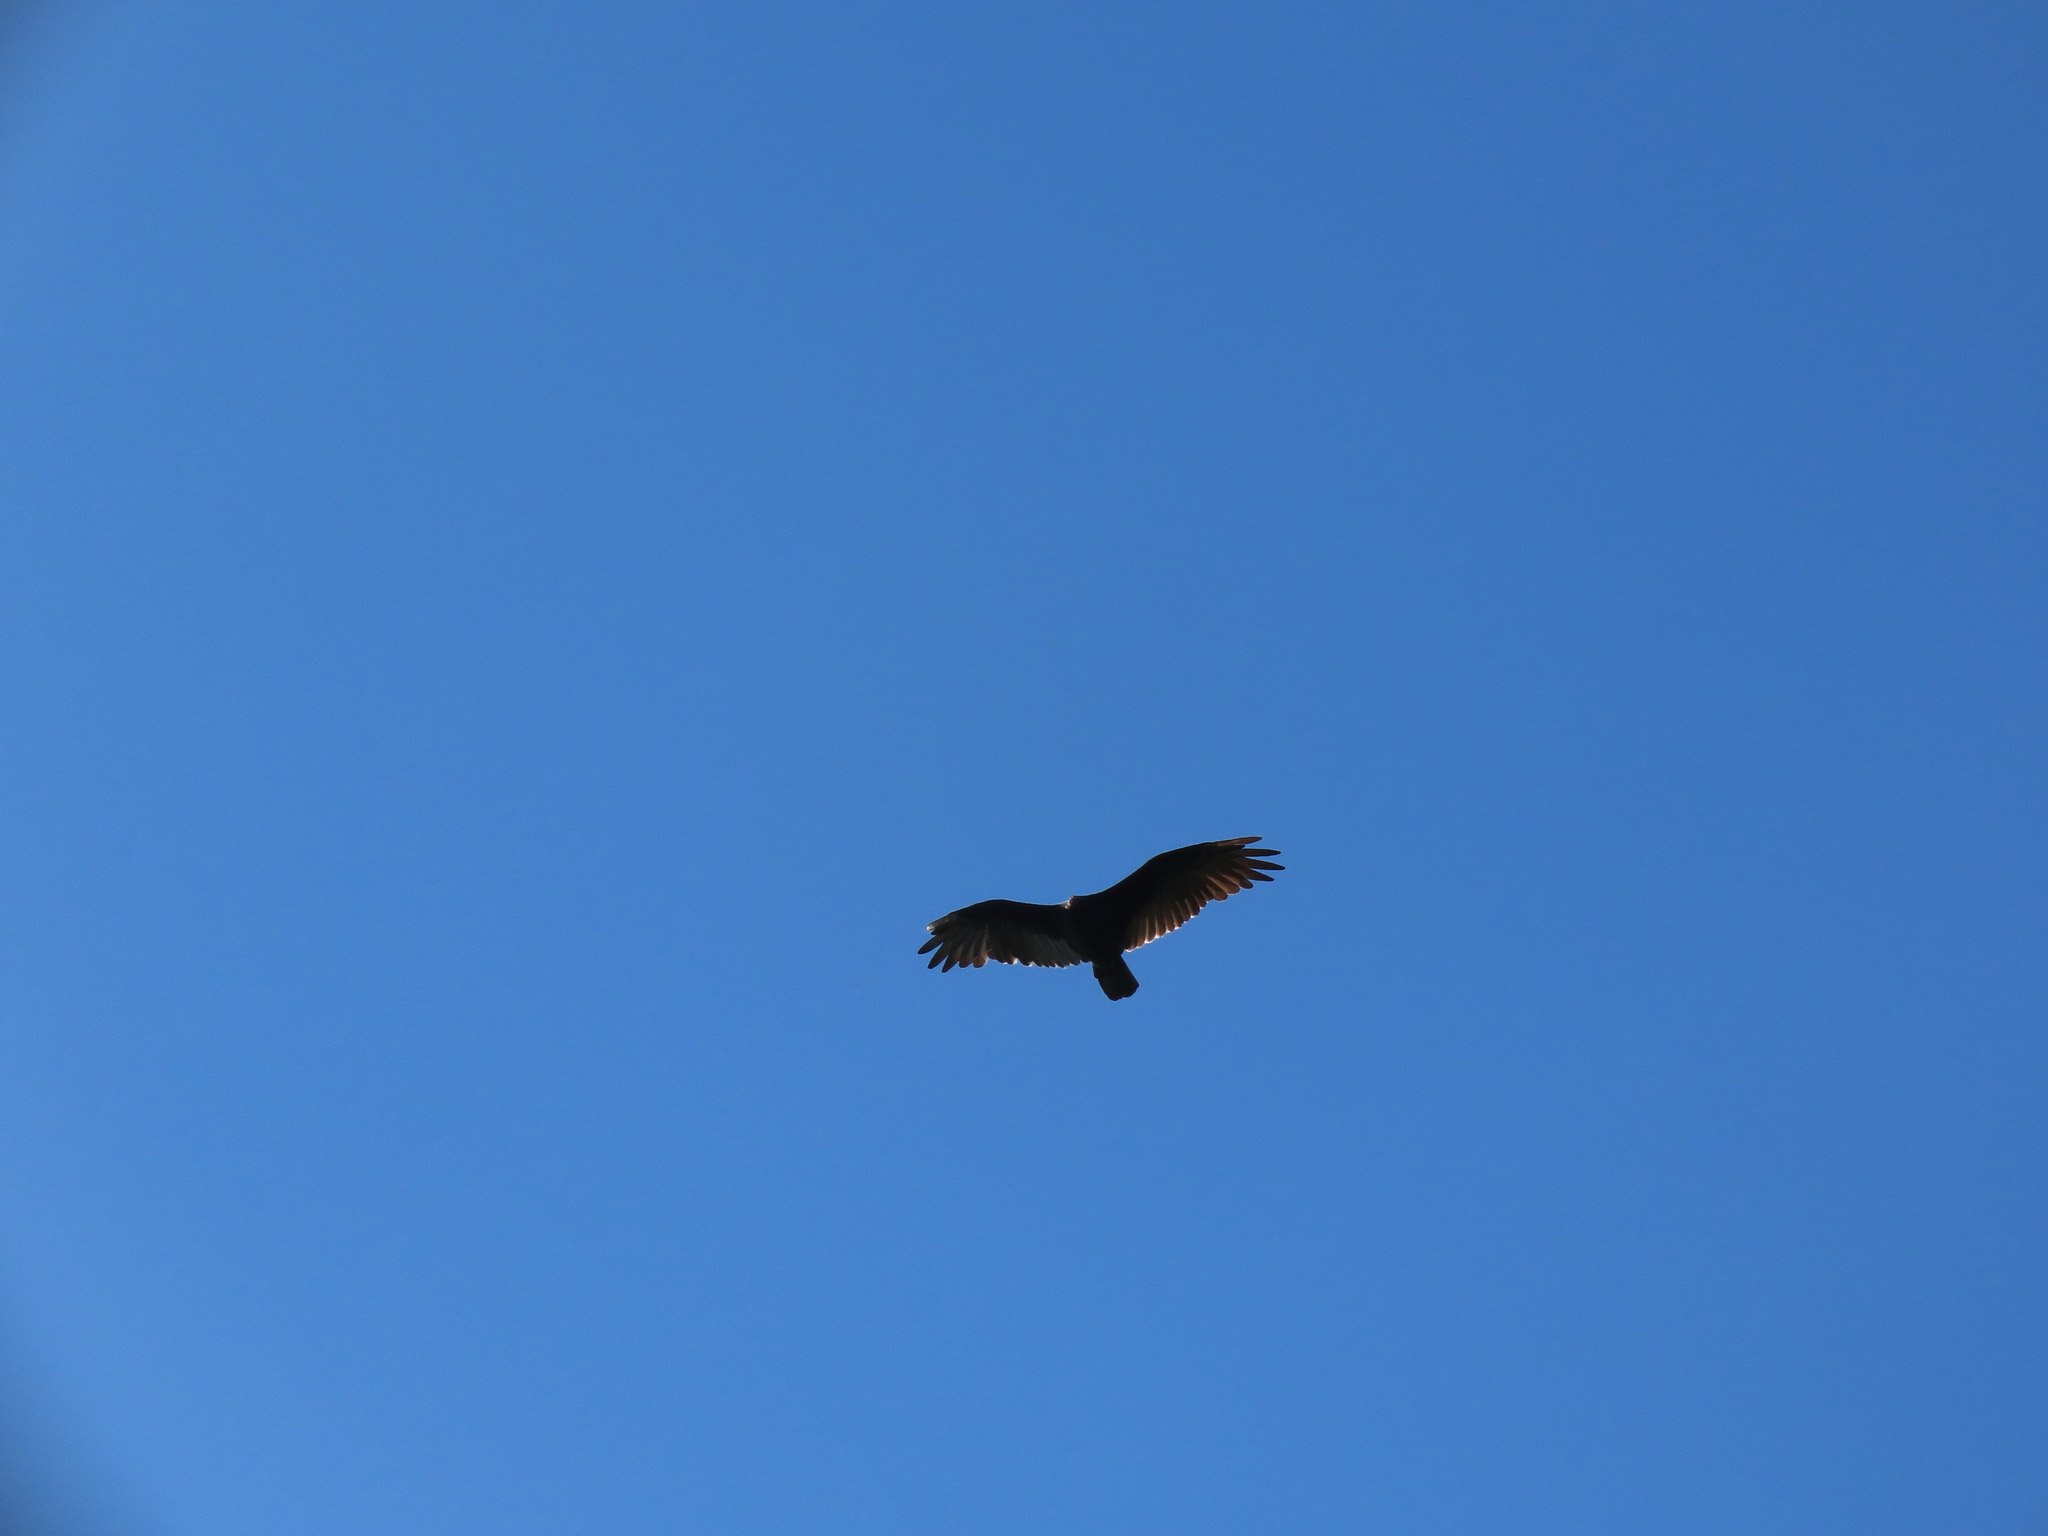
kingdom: Animalia
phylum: Chordata
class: Aves
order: Accipitriformes
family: Cathartidae
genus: Cathartes
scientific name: Cathartes aura
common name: Turkey vulture
